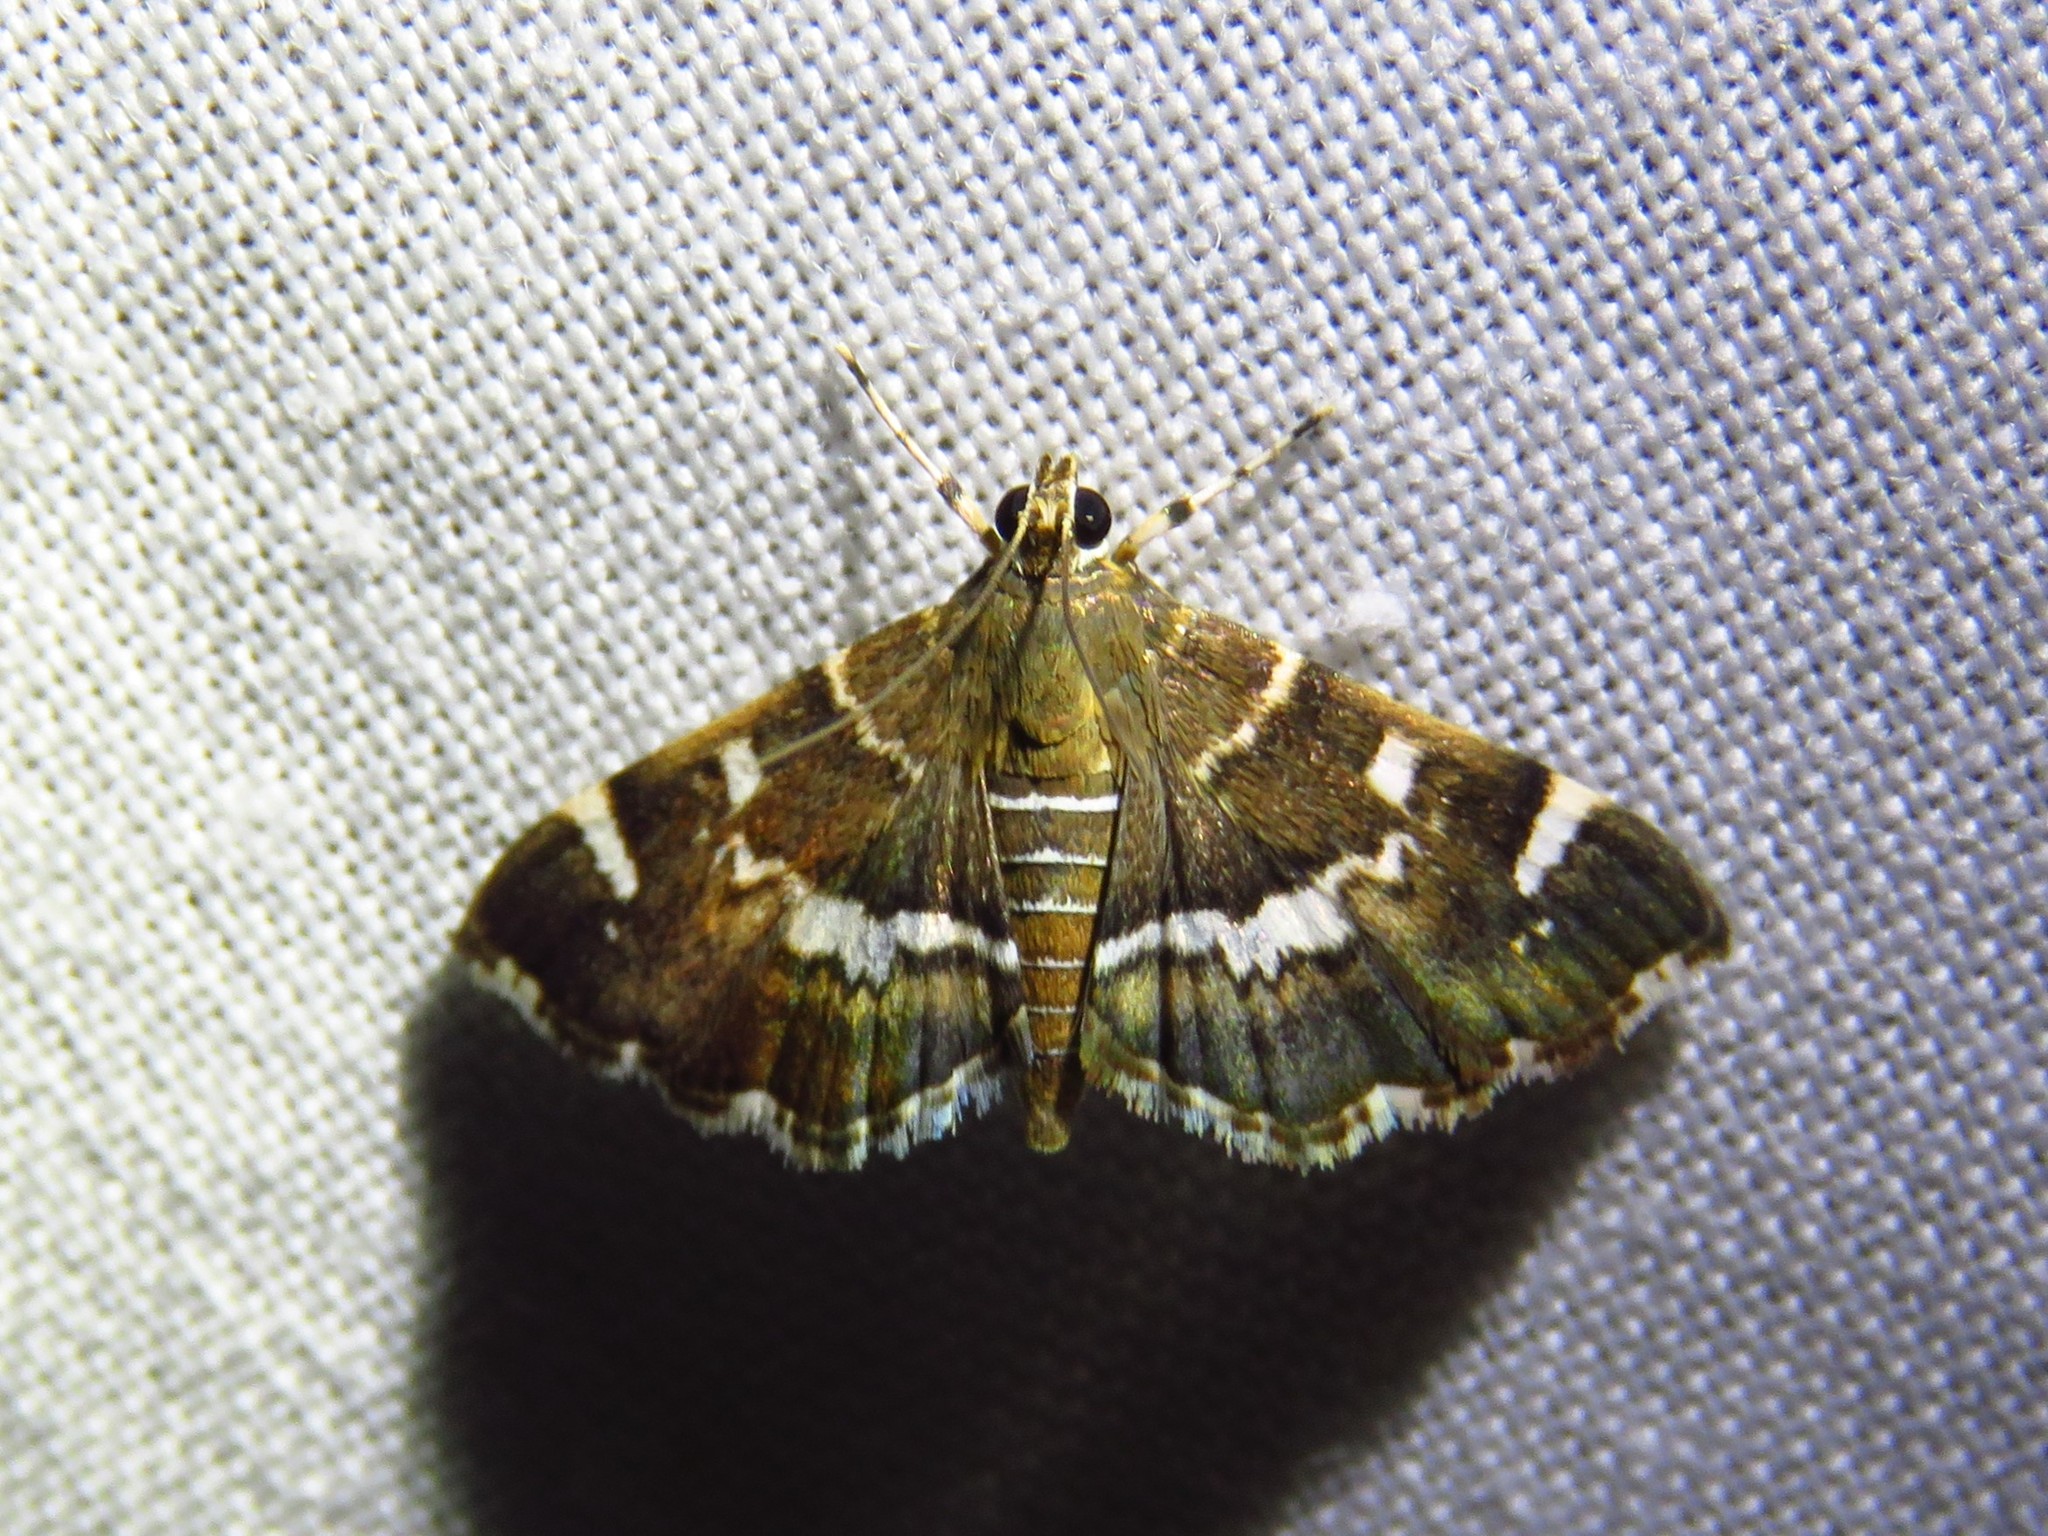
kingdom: Animalia
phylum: Arthropoda
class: Insecta
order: Lepidoptera
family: Crambidae
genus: Hymenia
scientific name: Hymenia perspectalis
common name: Spotted beet webworm
